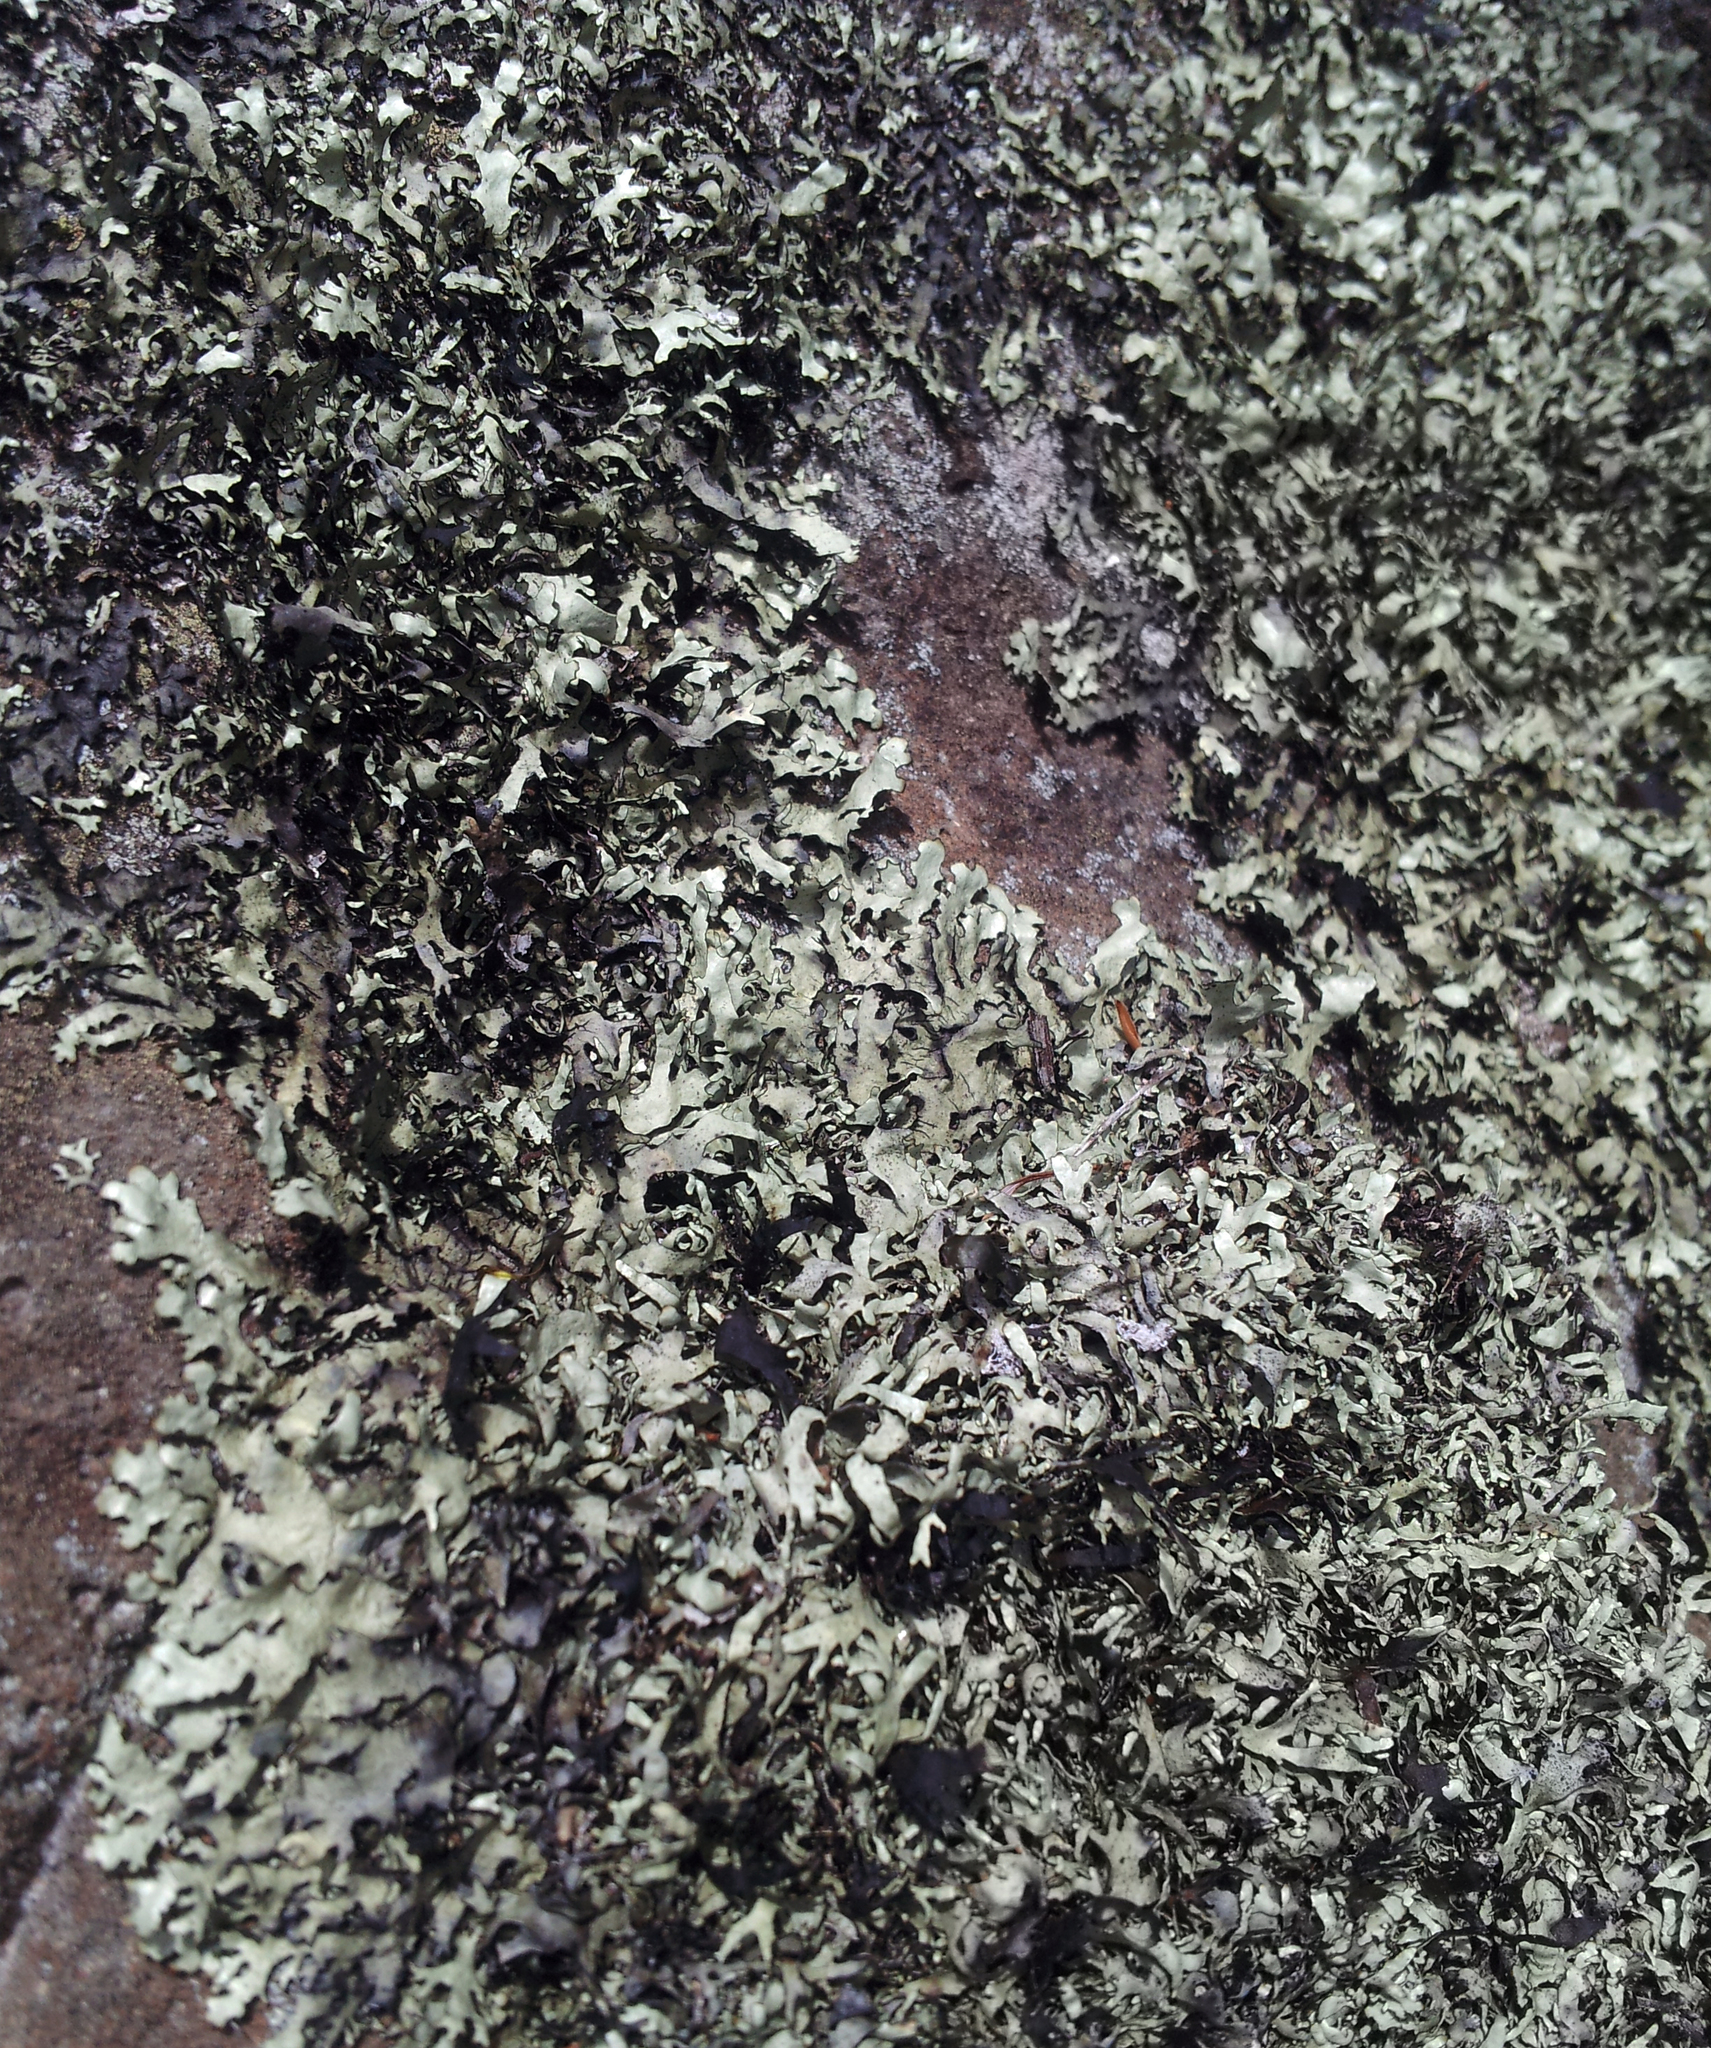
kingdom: Fungi
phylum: Ascomycota
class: Lecanoromycetes
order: Lecanorales
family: Parmeliaceae
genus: Xanthoparmelia
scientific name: Xanthoparmelia furcata
